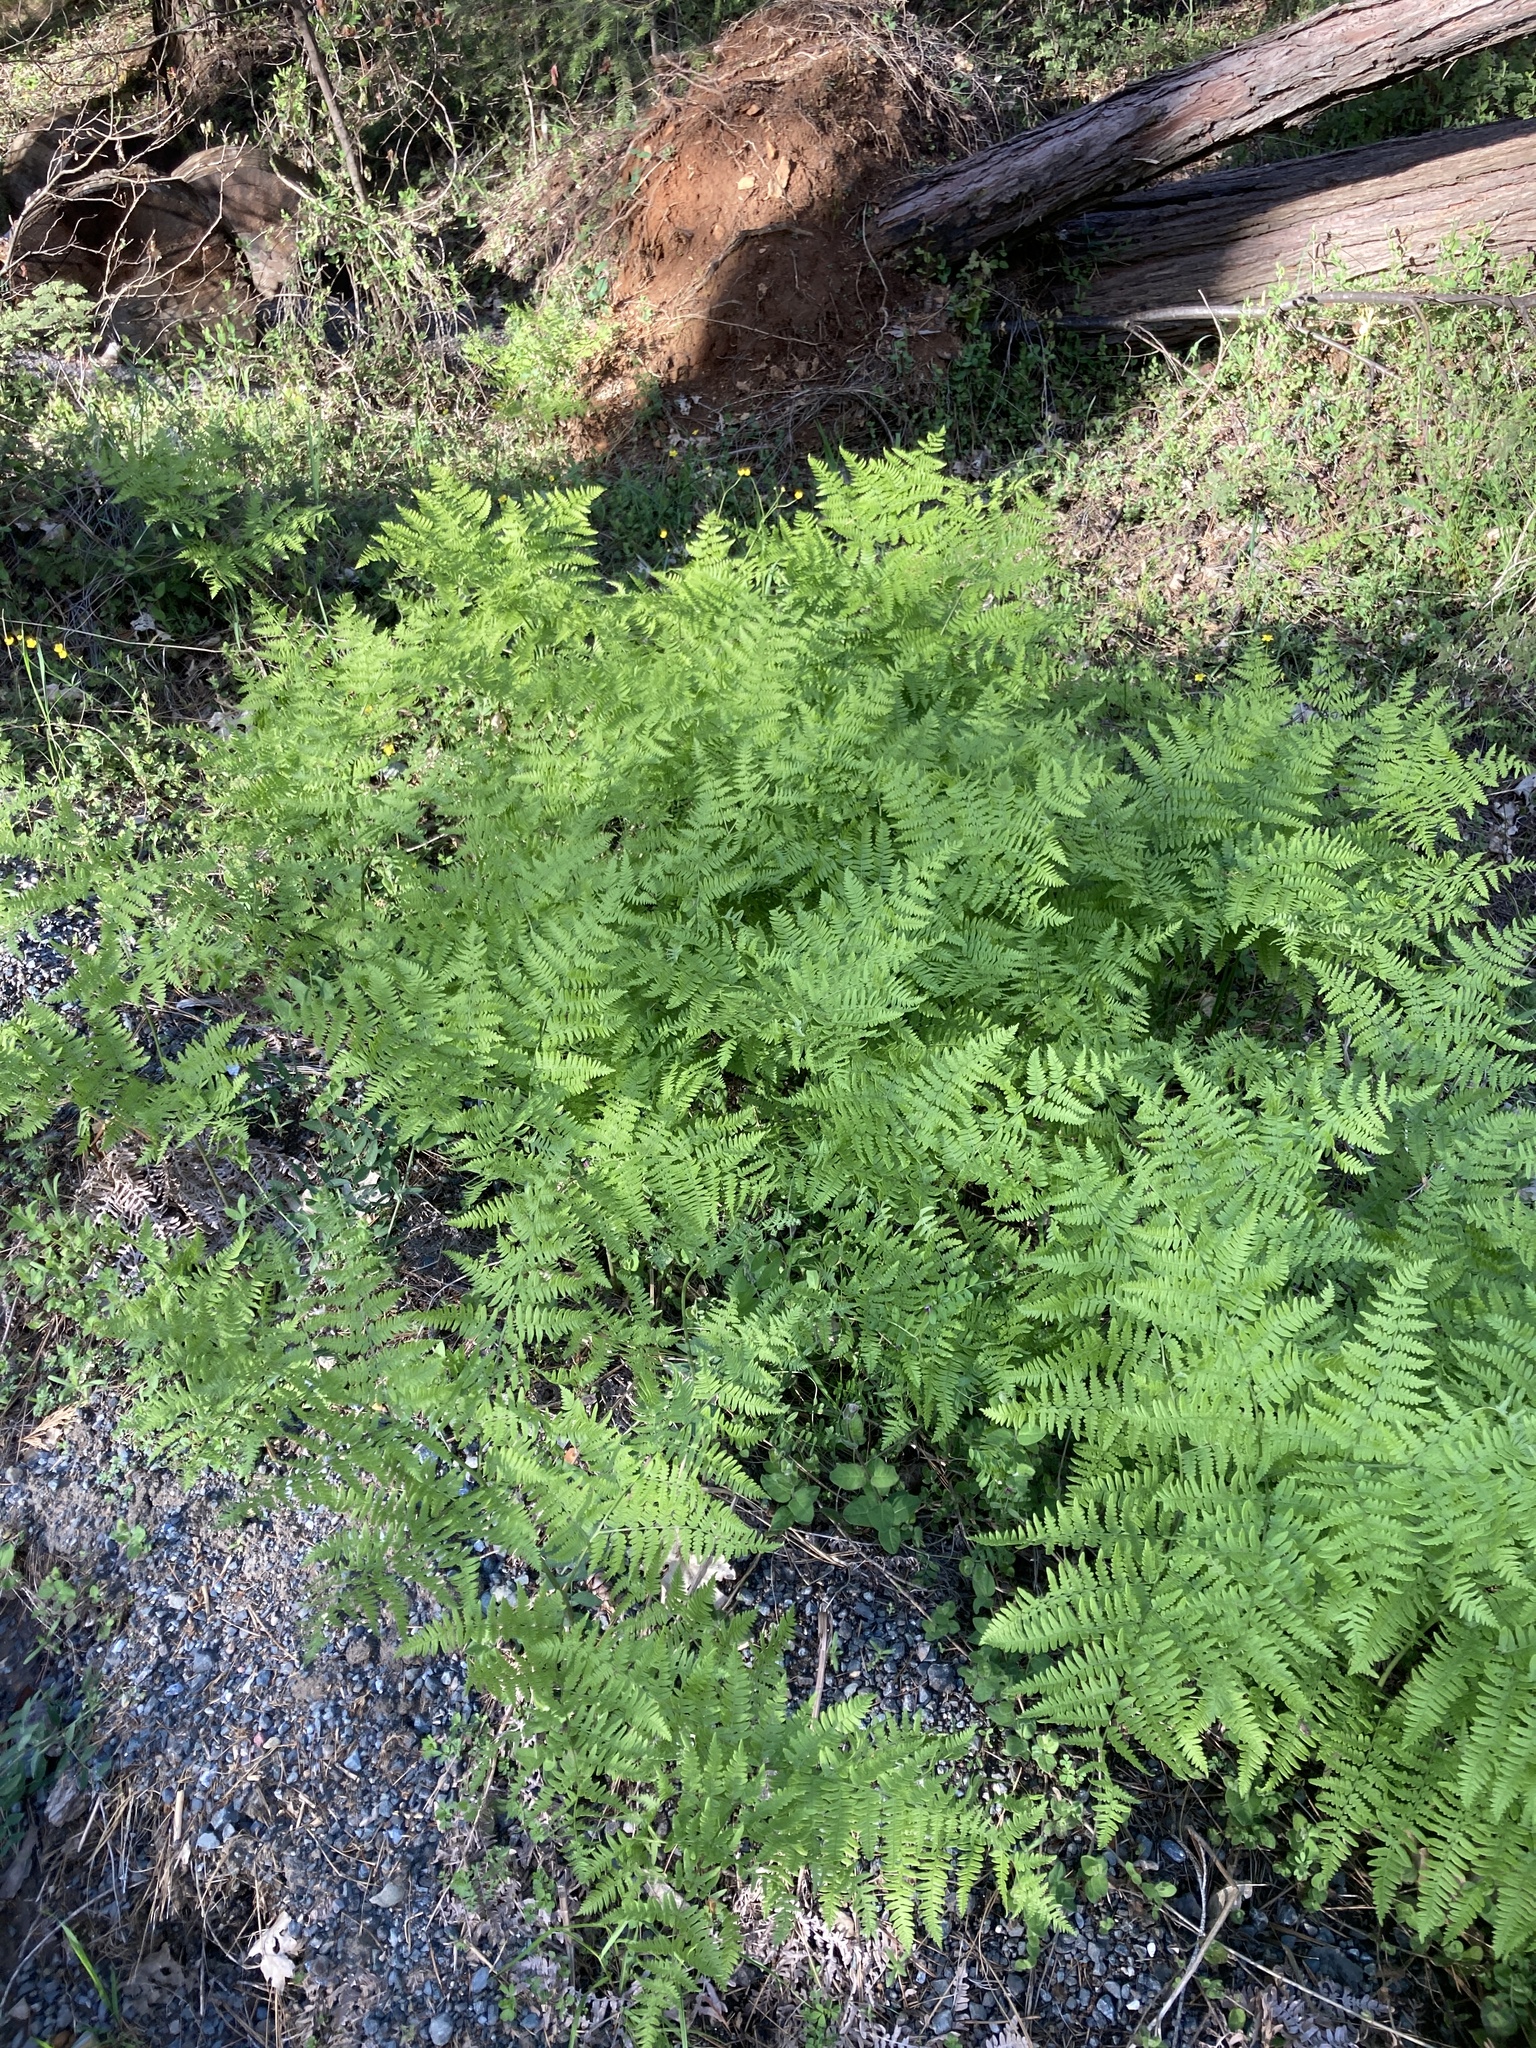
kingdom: Plantae
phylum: Tracheophyta
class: Polypodiopsida
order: Polypodiales
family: Dennstaedtiaceae
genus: Pteridium
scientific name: Pteridium aquilinum
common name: Bracken
